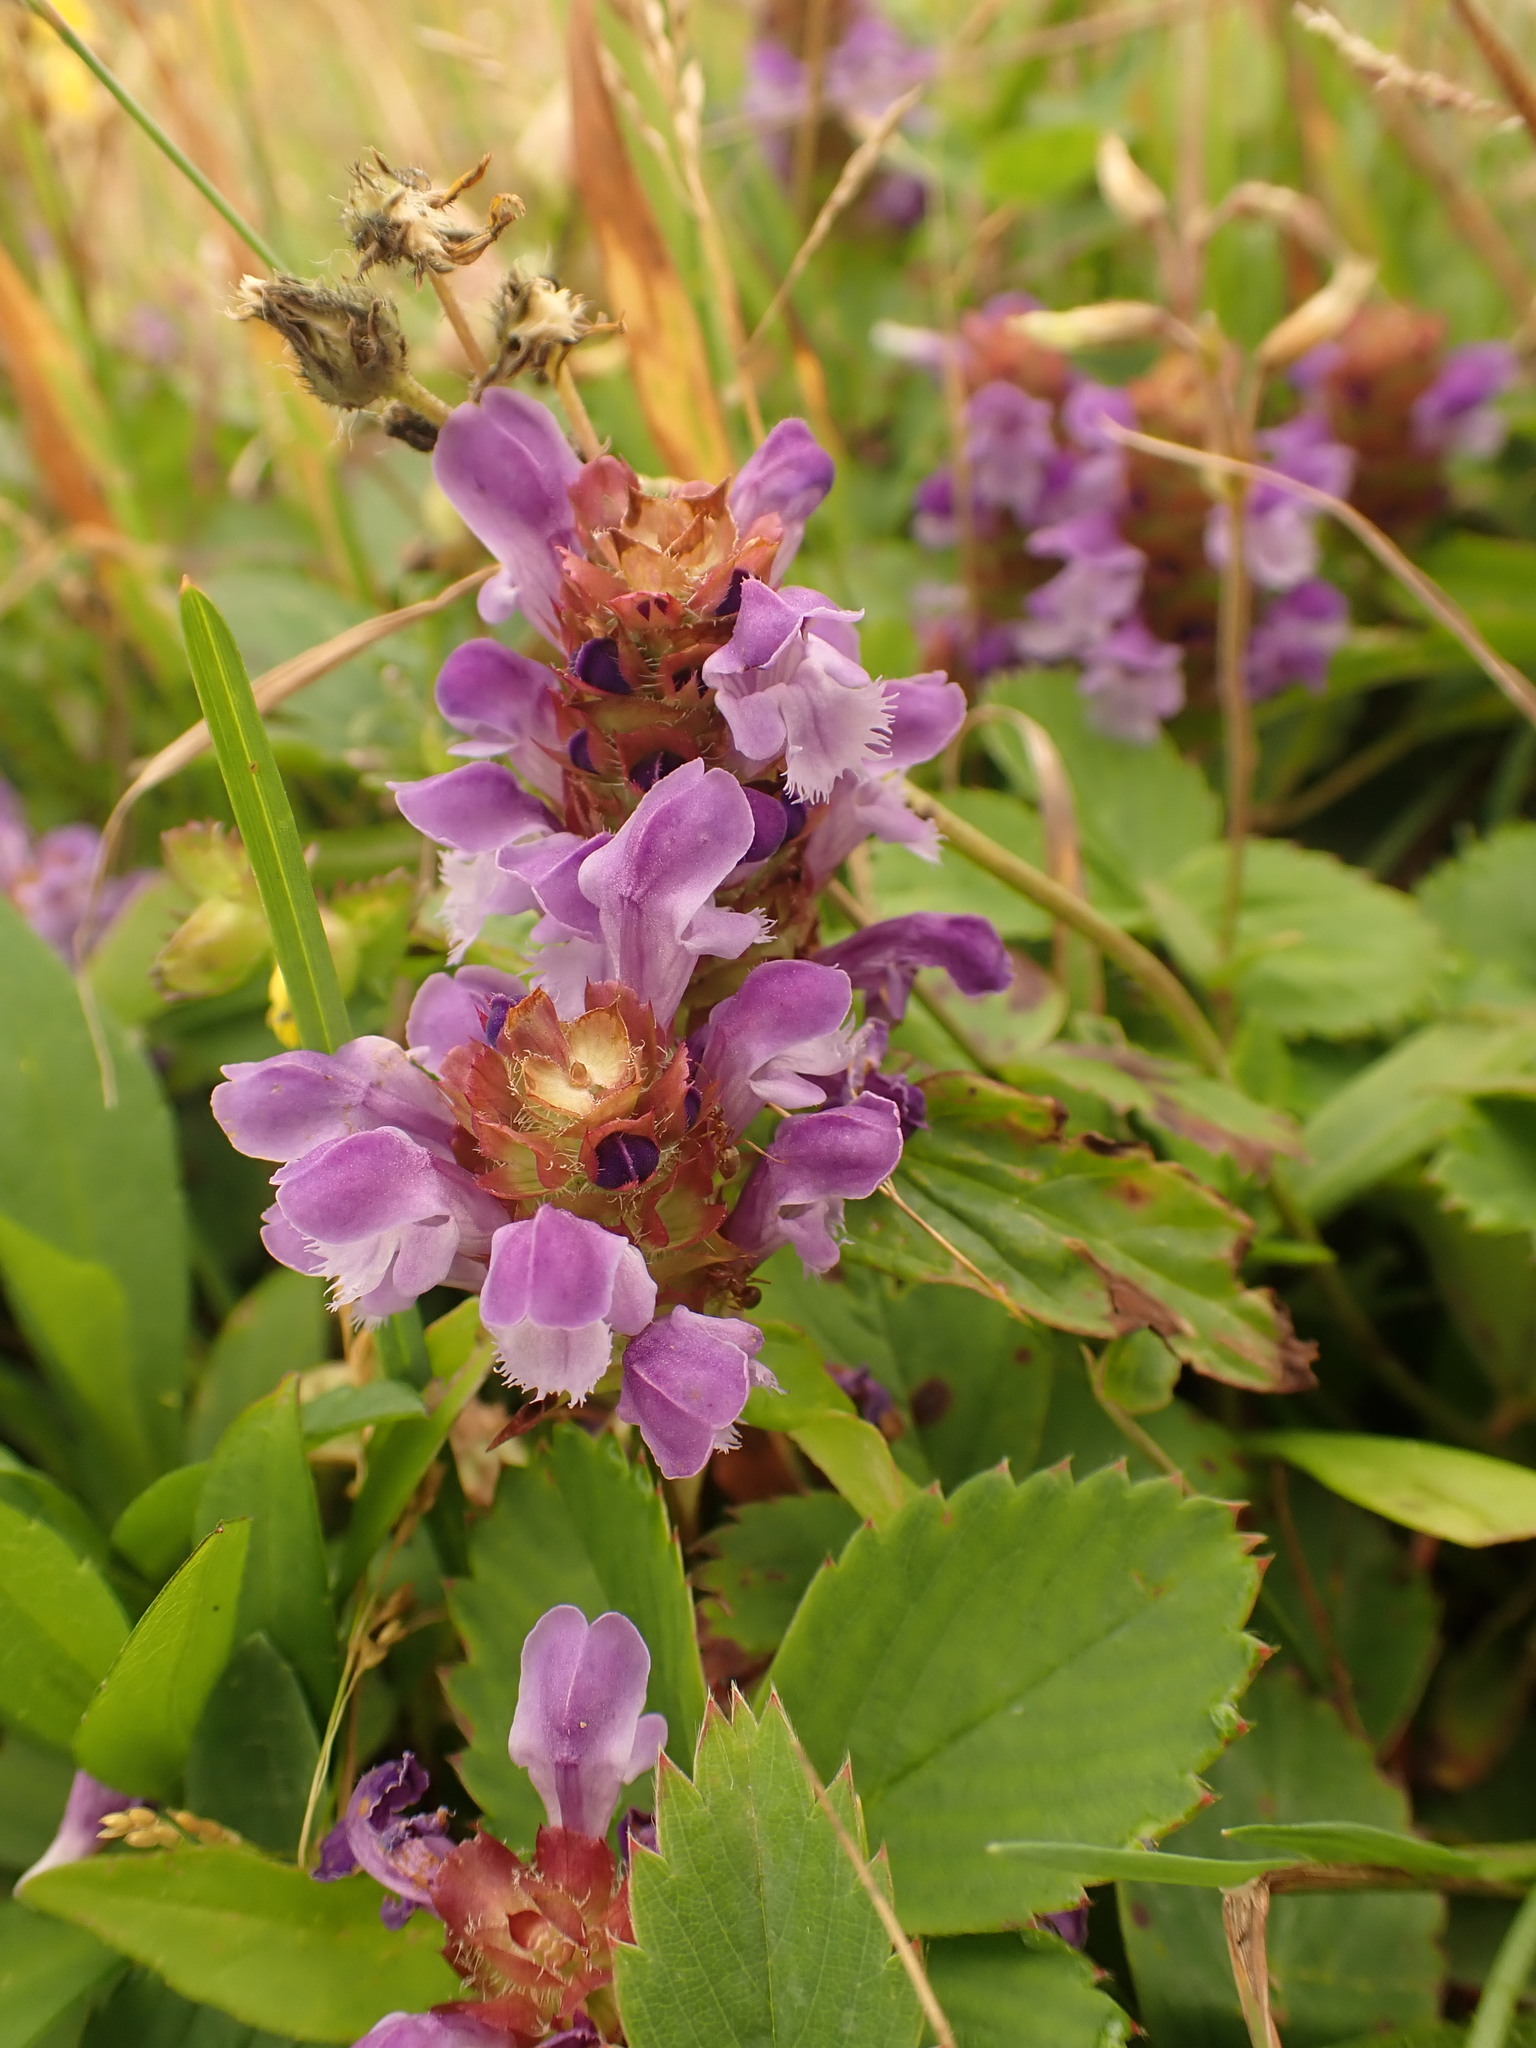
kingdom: Plantae
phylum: Tracheophyta
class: Magnoliopsida
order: Lamiales
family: Lamiaceae
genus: Prunella
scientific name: Prunella vulgaris
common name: Heal-all
